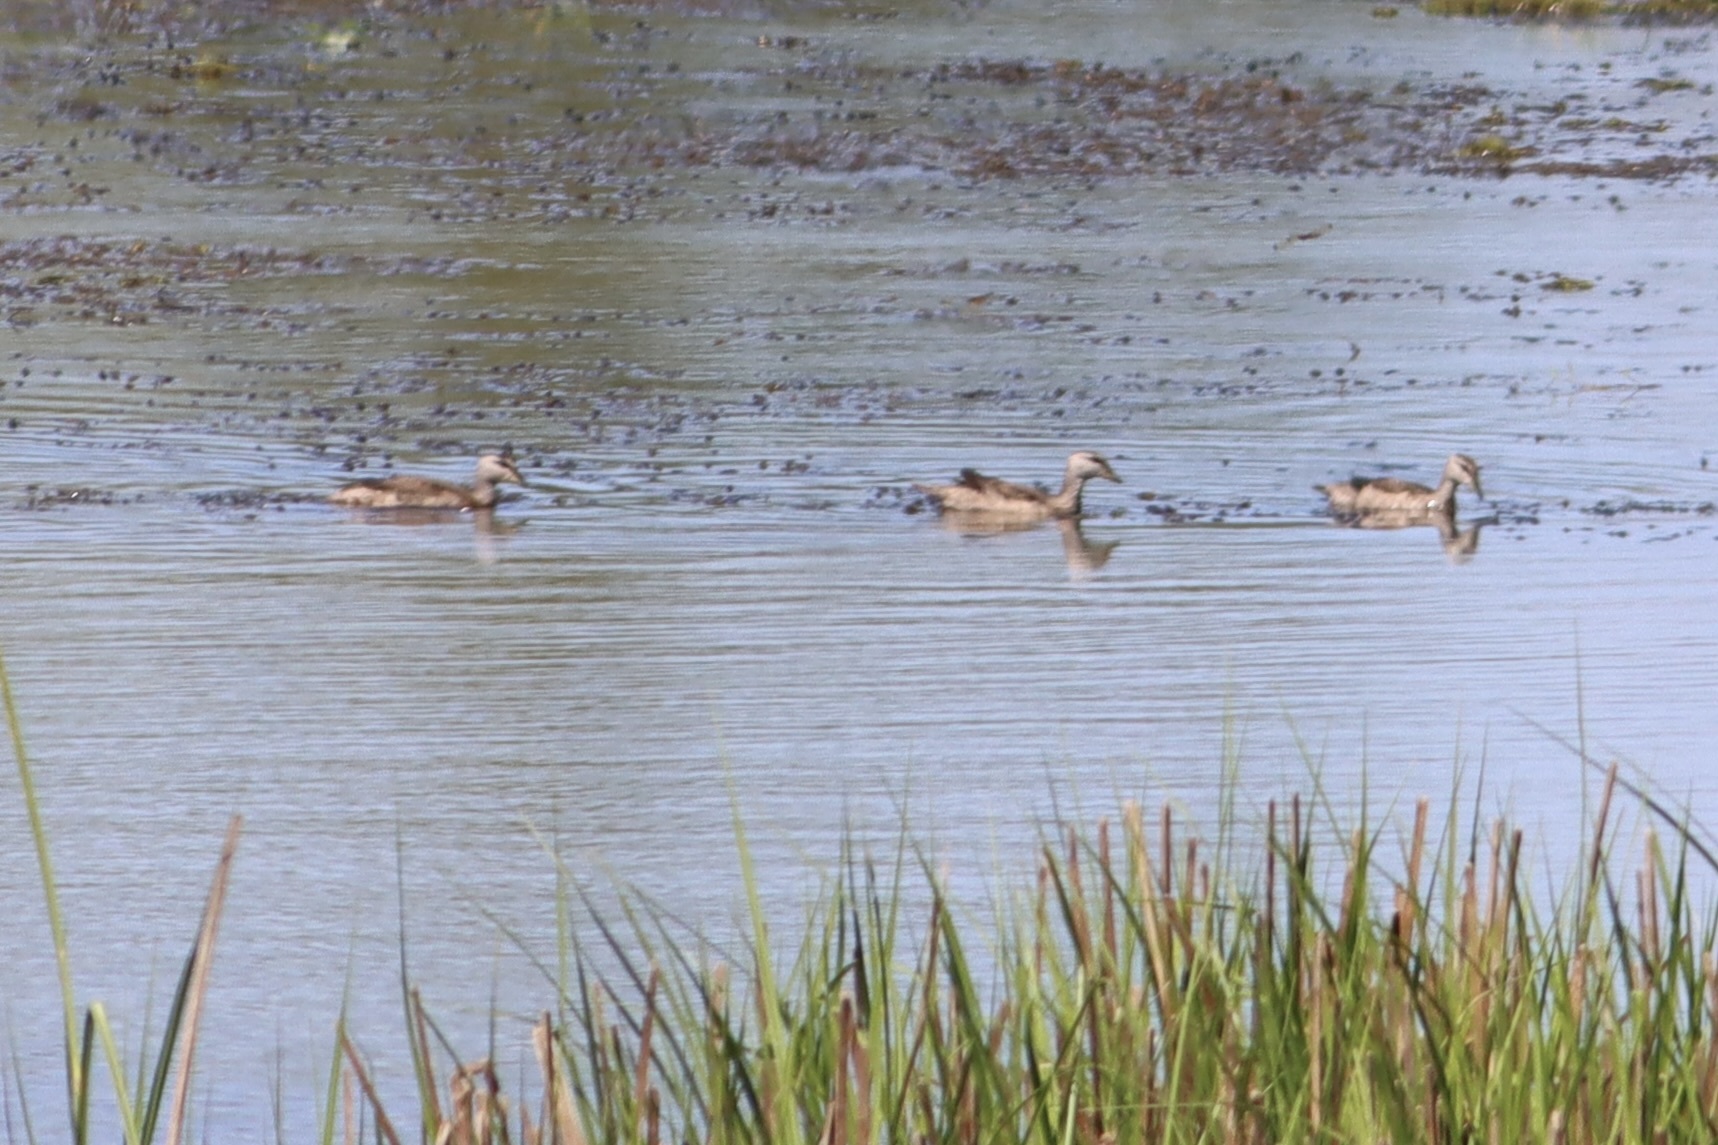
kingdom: Animalia
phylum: Chordata
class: Aves
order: Anseriformes
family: Anatidae
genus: Nettapus
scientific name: Nettapus coromandelianus
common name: Cotton pygmy-goose
